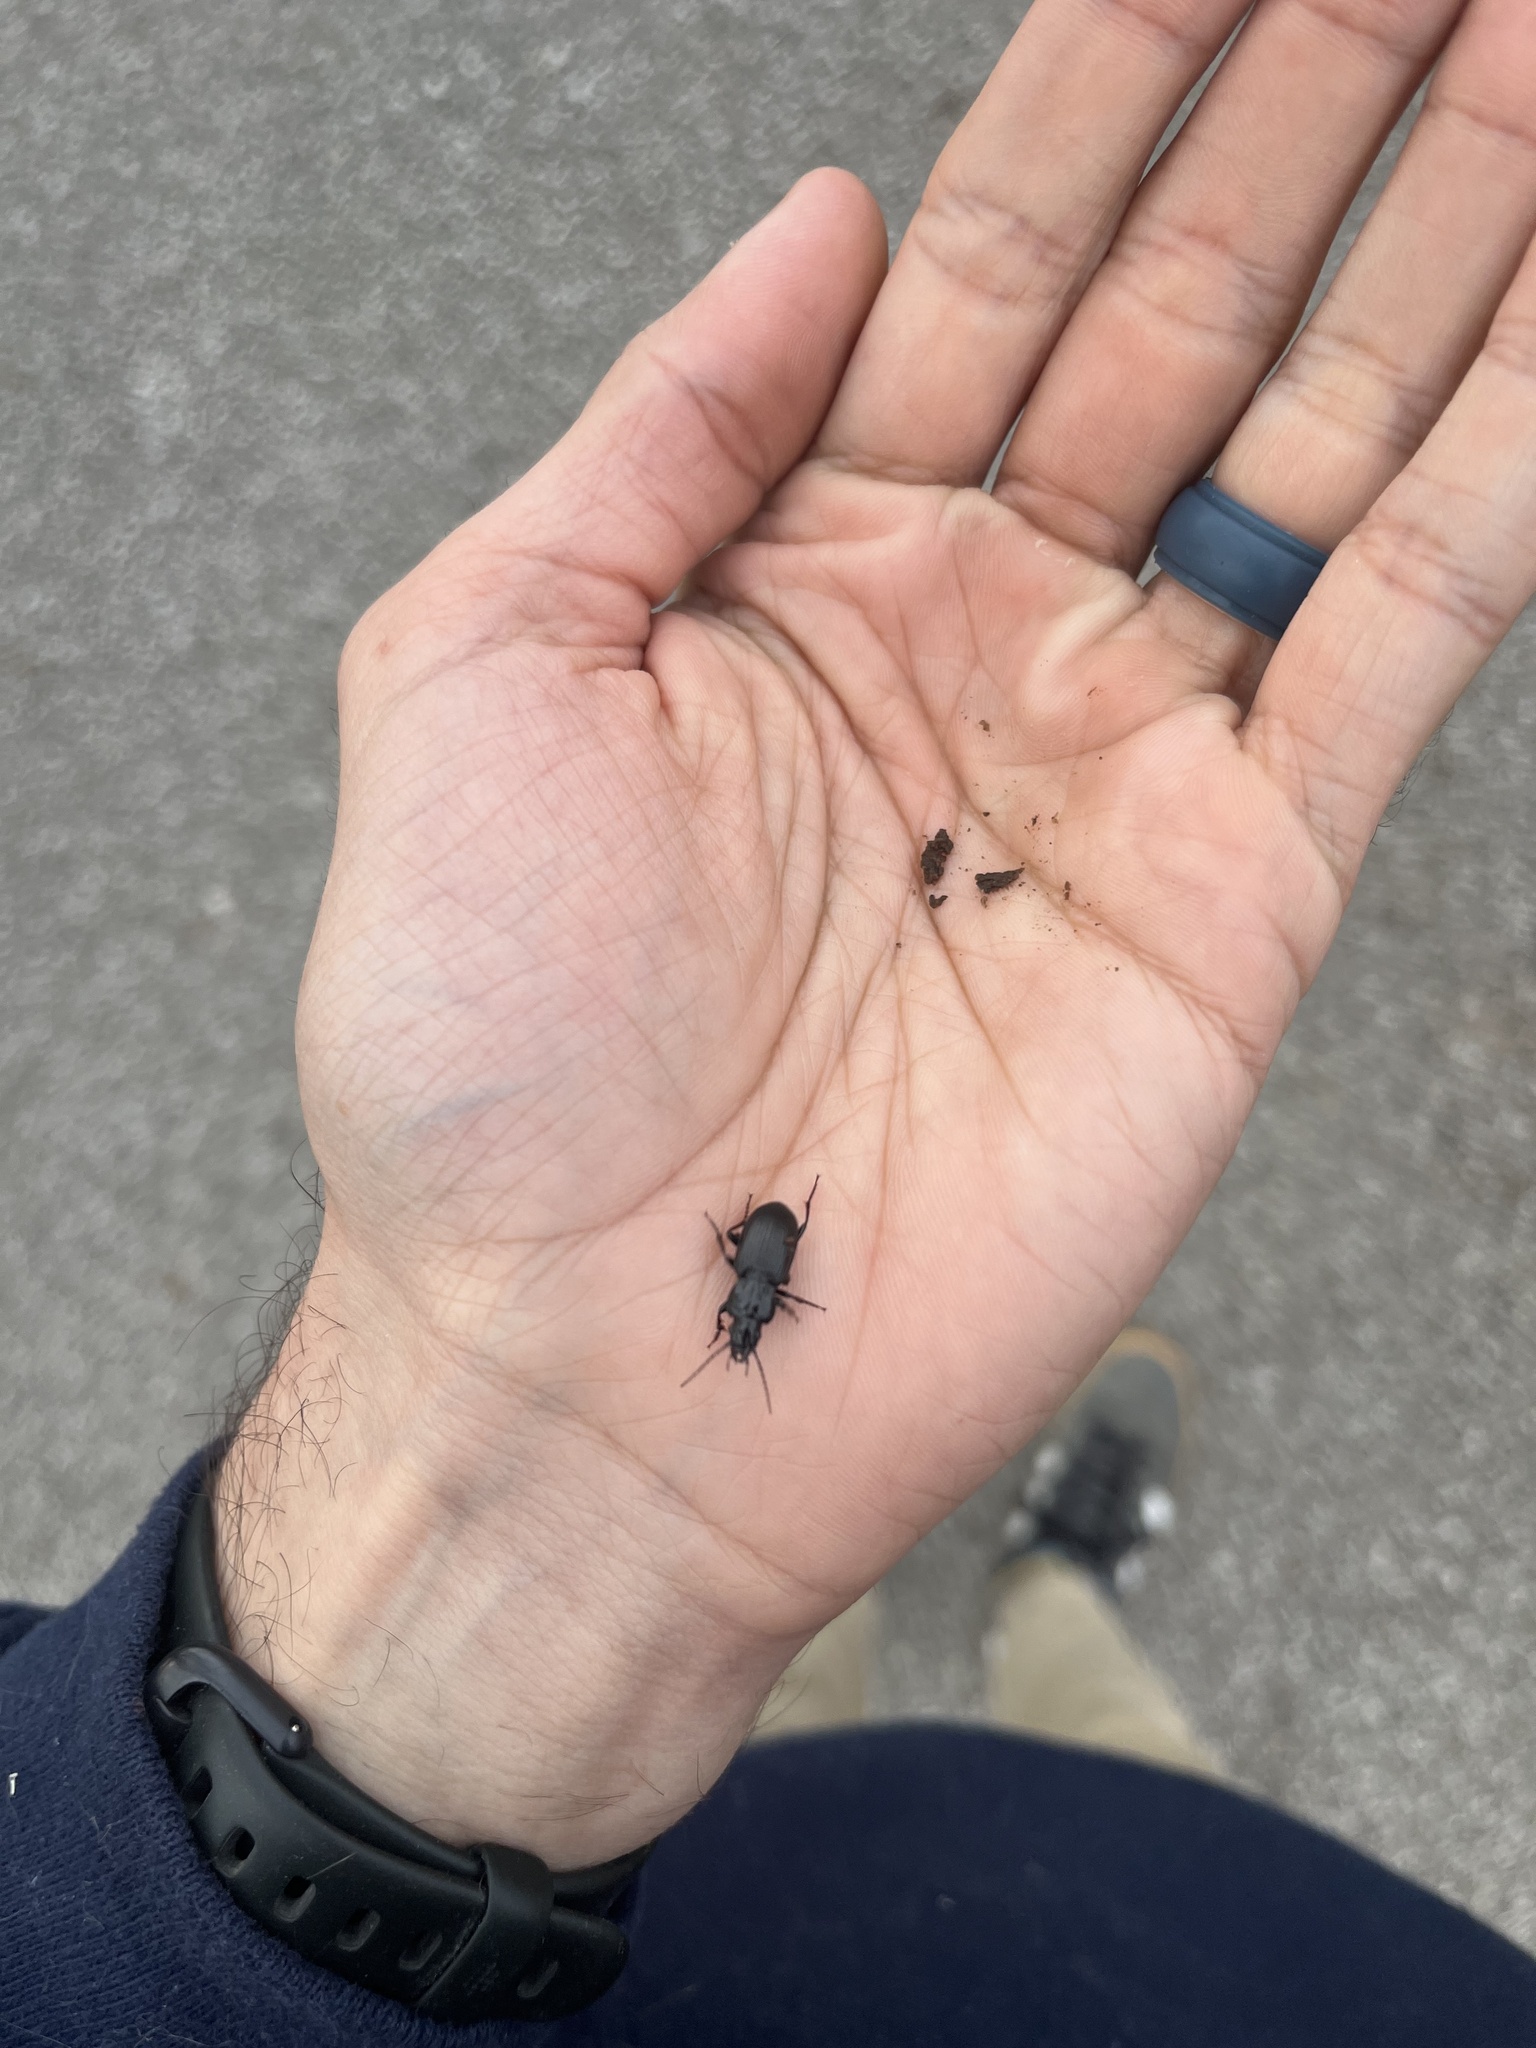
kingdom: Animalia
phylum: Arthropoda
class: Insecta
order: Coleoptera
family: Carabidae
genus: Pterostichus
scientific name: Pterostichus melanarius
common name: European dark harp ground beetle
